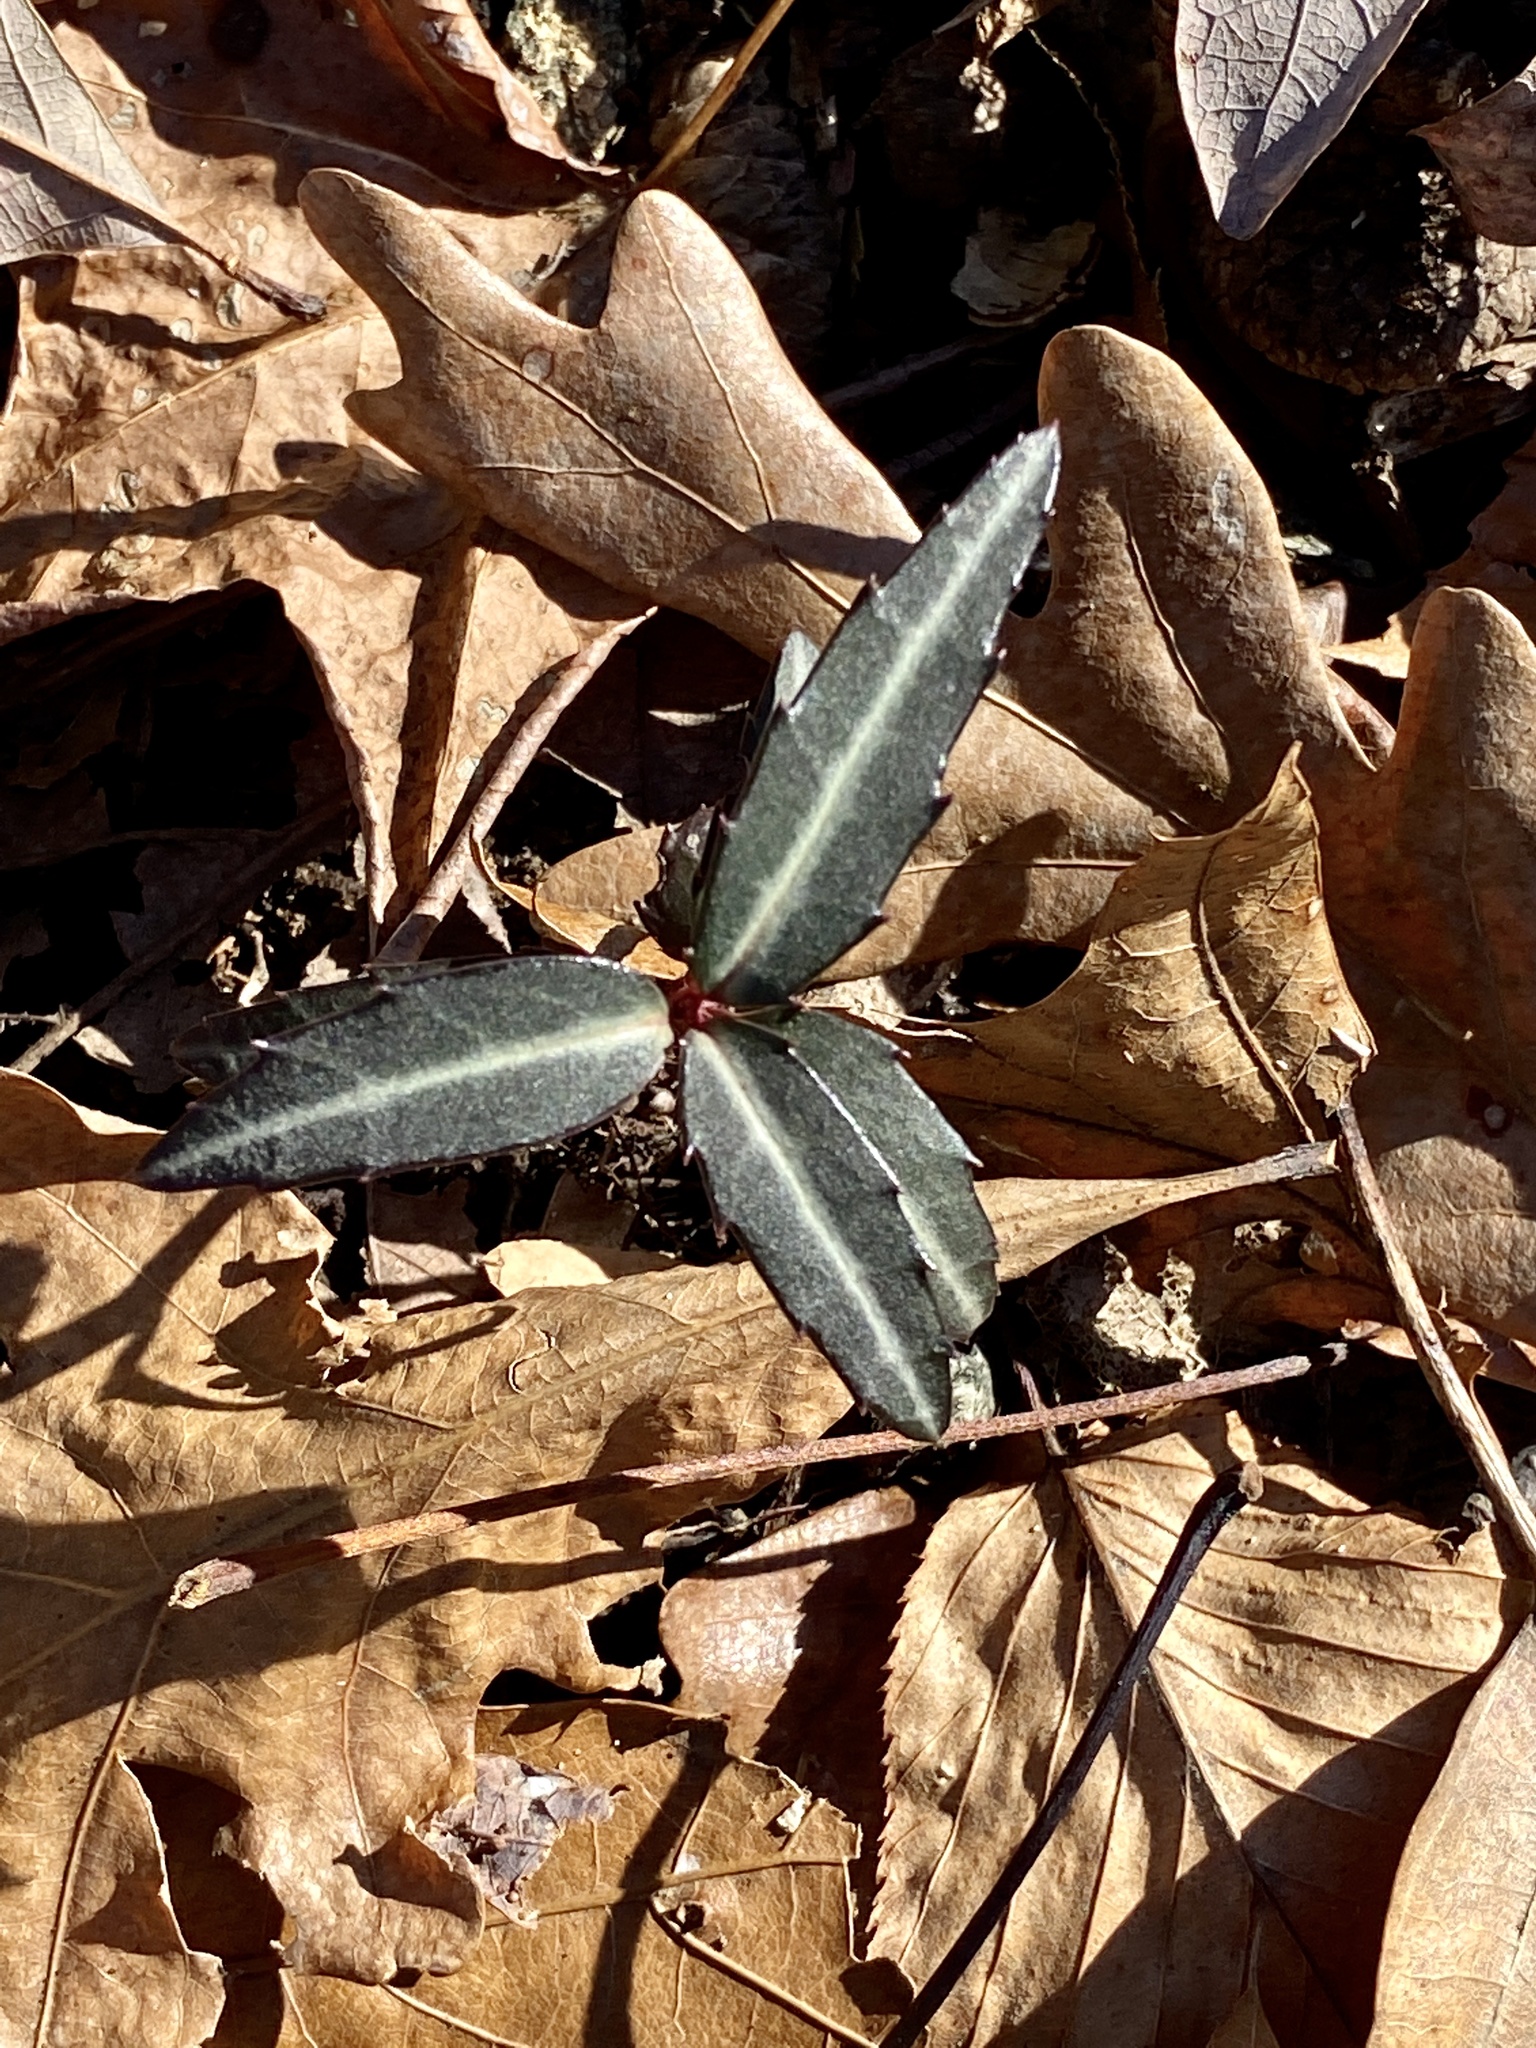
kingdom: Plantae
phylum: Tracheophyta
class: Magnoliopsida
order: Ericales
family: Ericaceae
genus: Chimaphila
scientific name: Chimaphila maculata
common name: Spotted pipsissewa
